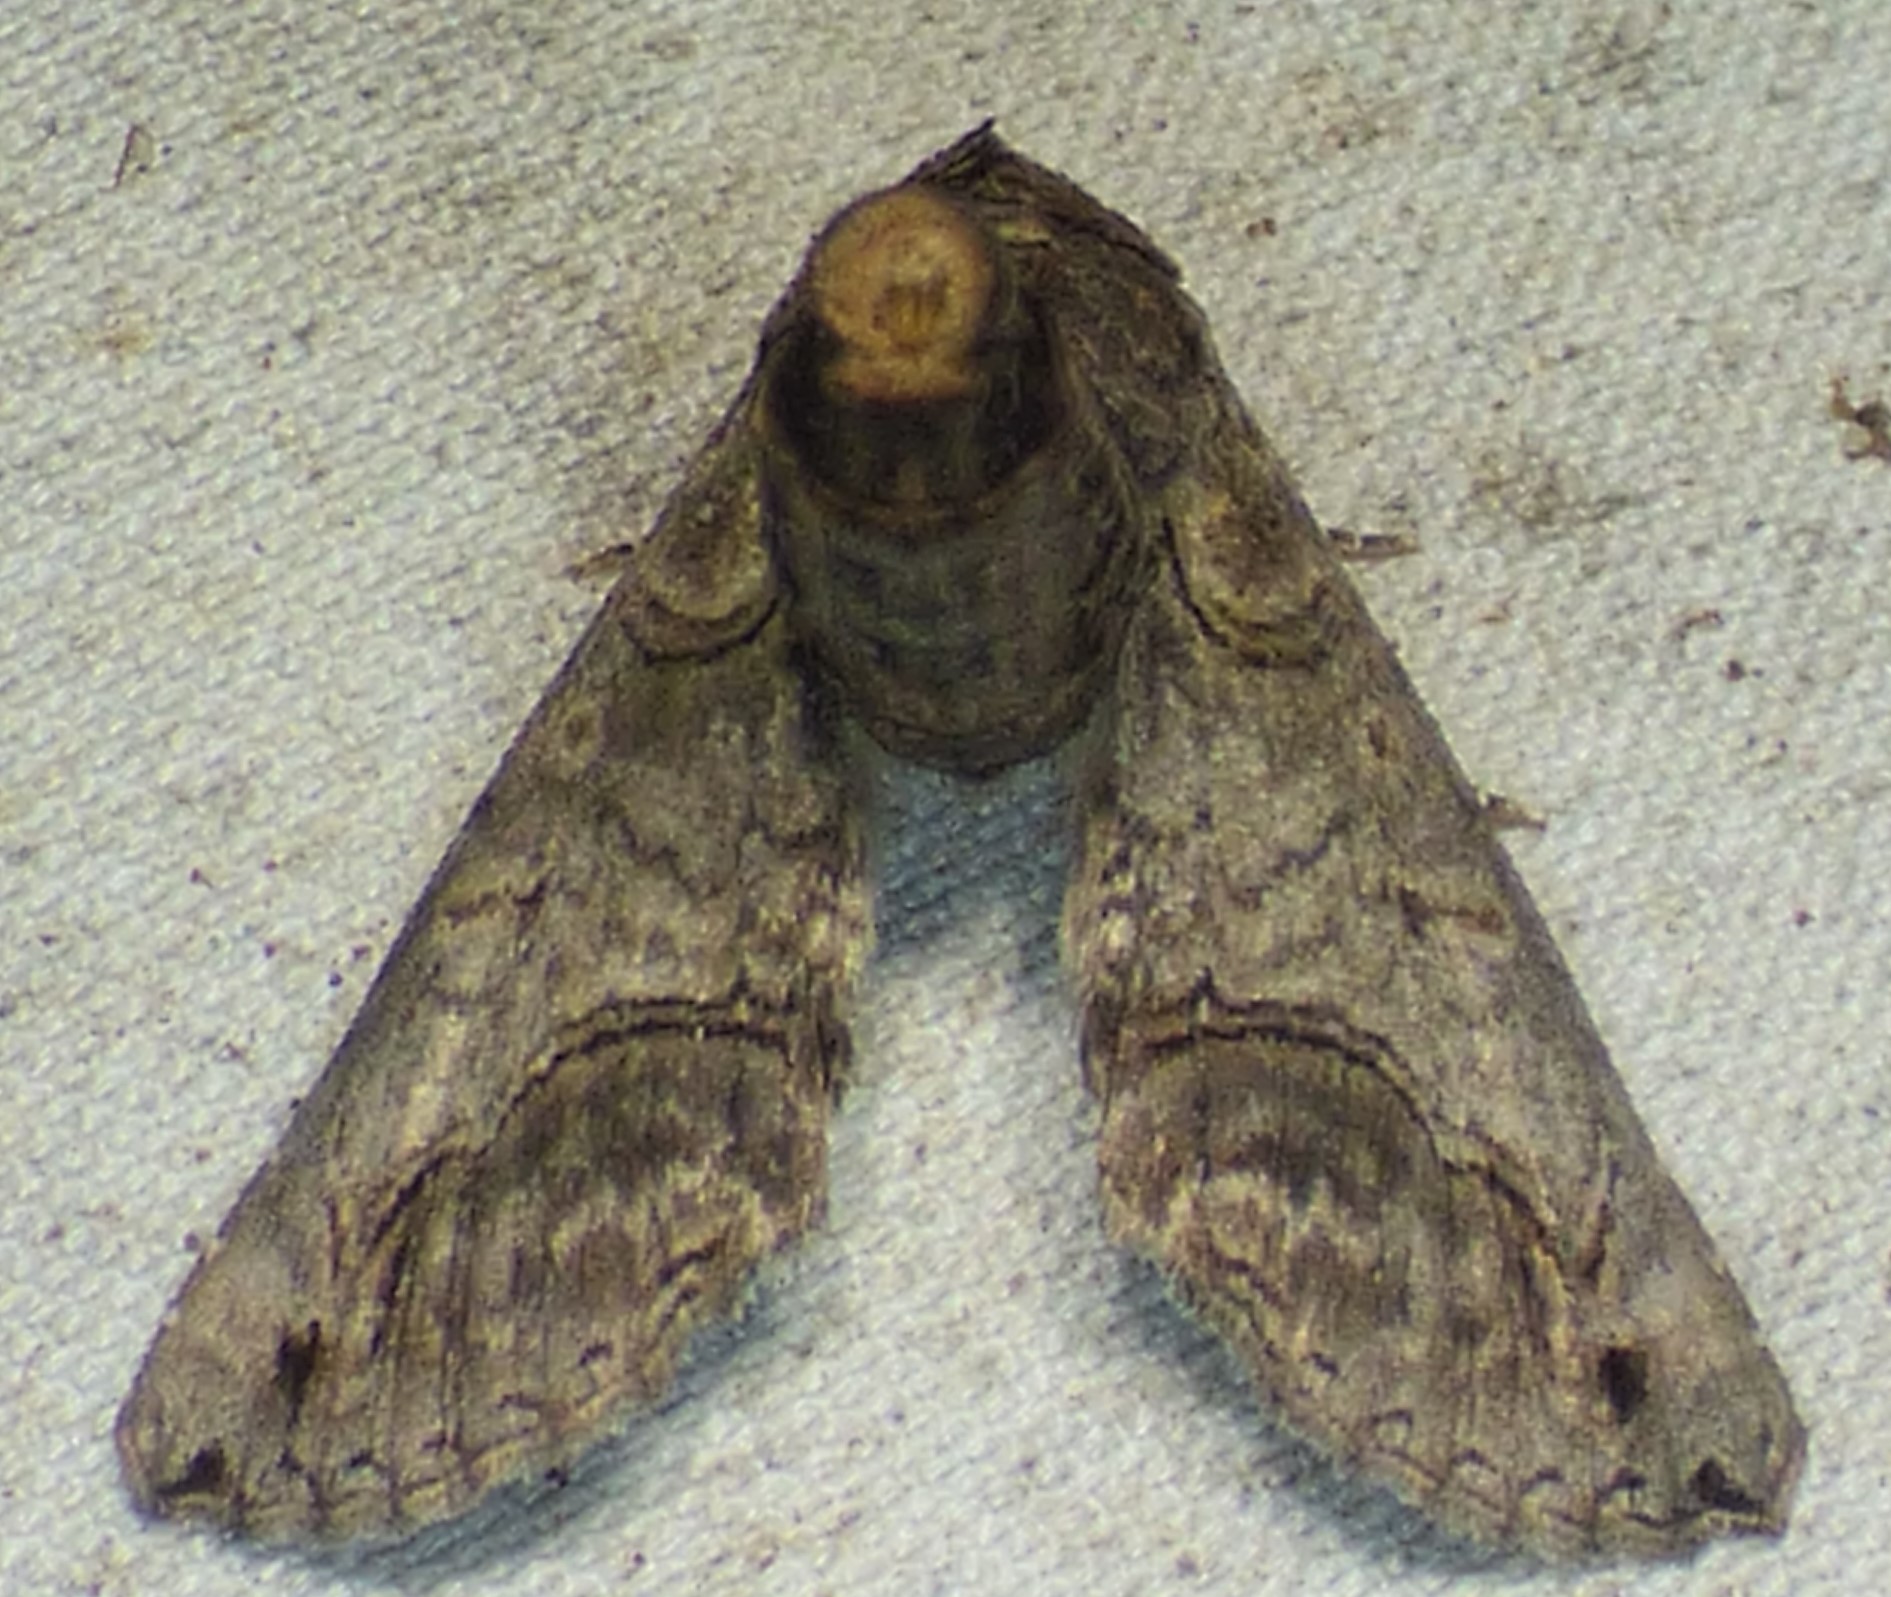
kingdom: Animalia
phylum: Arthropoda
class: Insecta
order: Lepidoptera
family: Euteliidae
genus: Paectes
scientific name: Paectes abrostoloides
